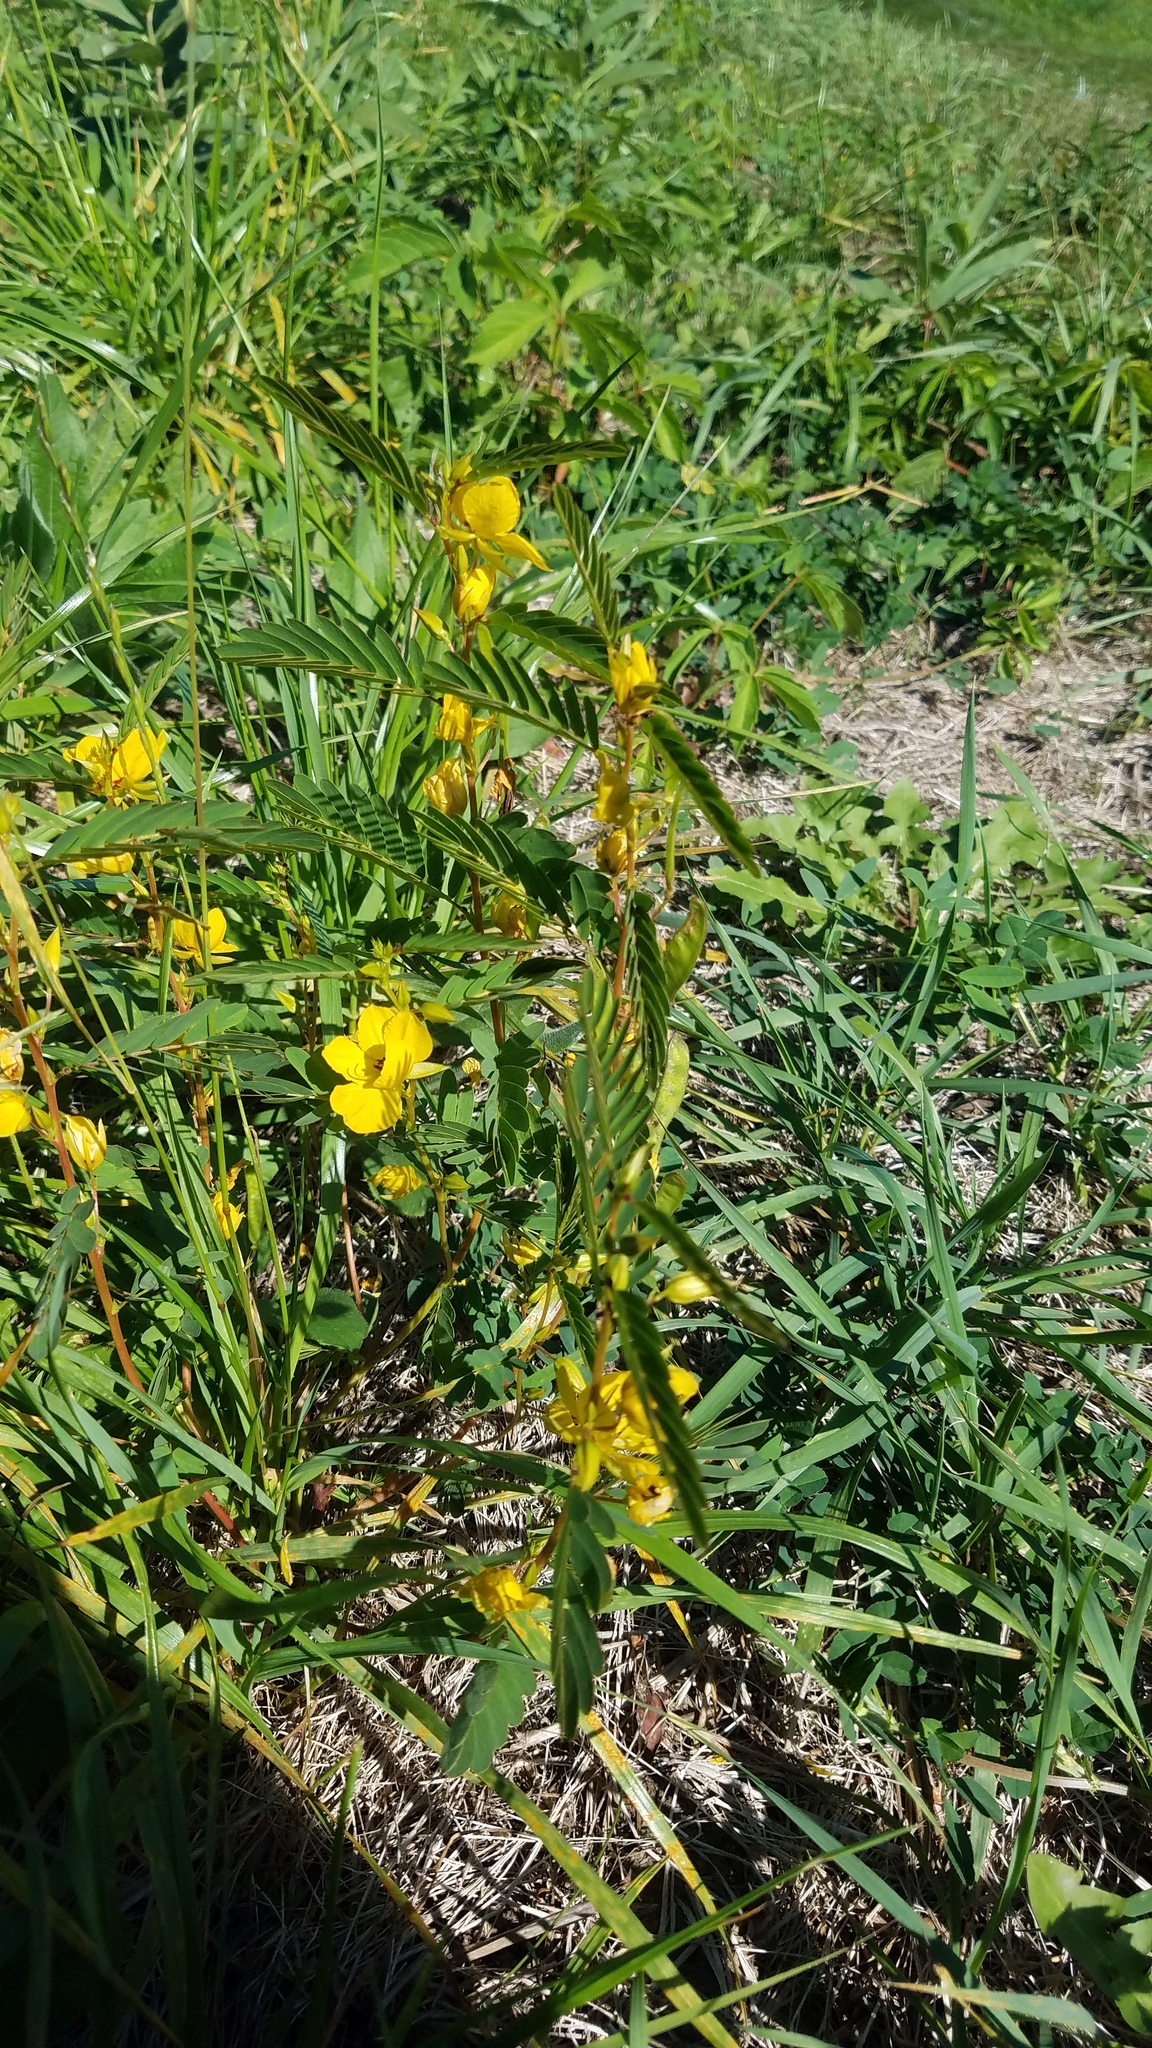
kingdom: Plantae
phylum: Tracheophyta
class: Magnoliopsida
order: Fabales
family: Fabaceae
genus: Chamaecrista
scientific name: Chamaecrista fasciculata
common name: Golden cassia
